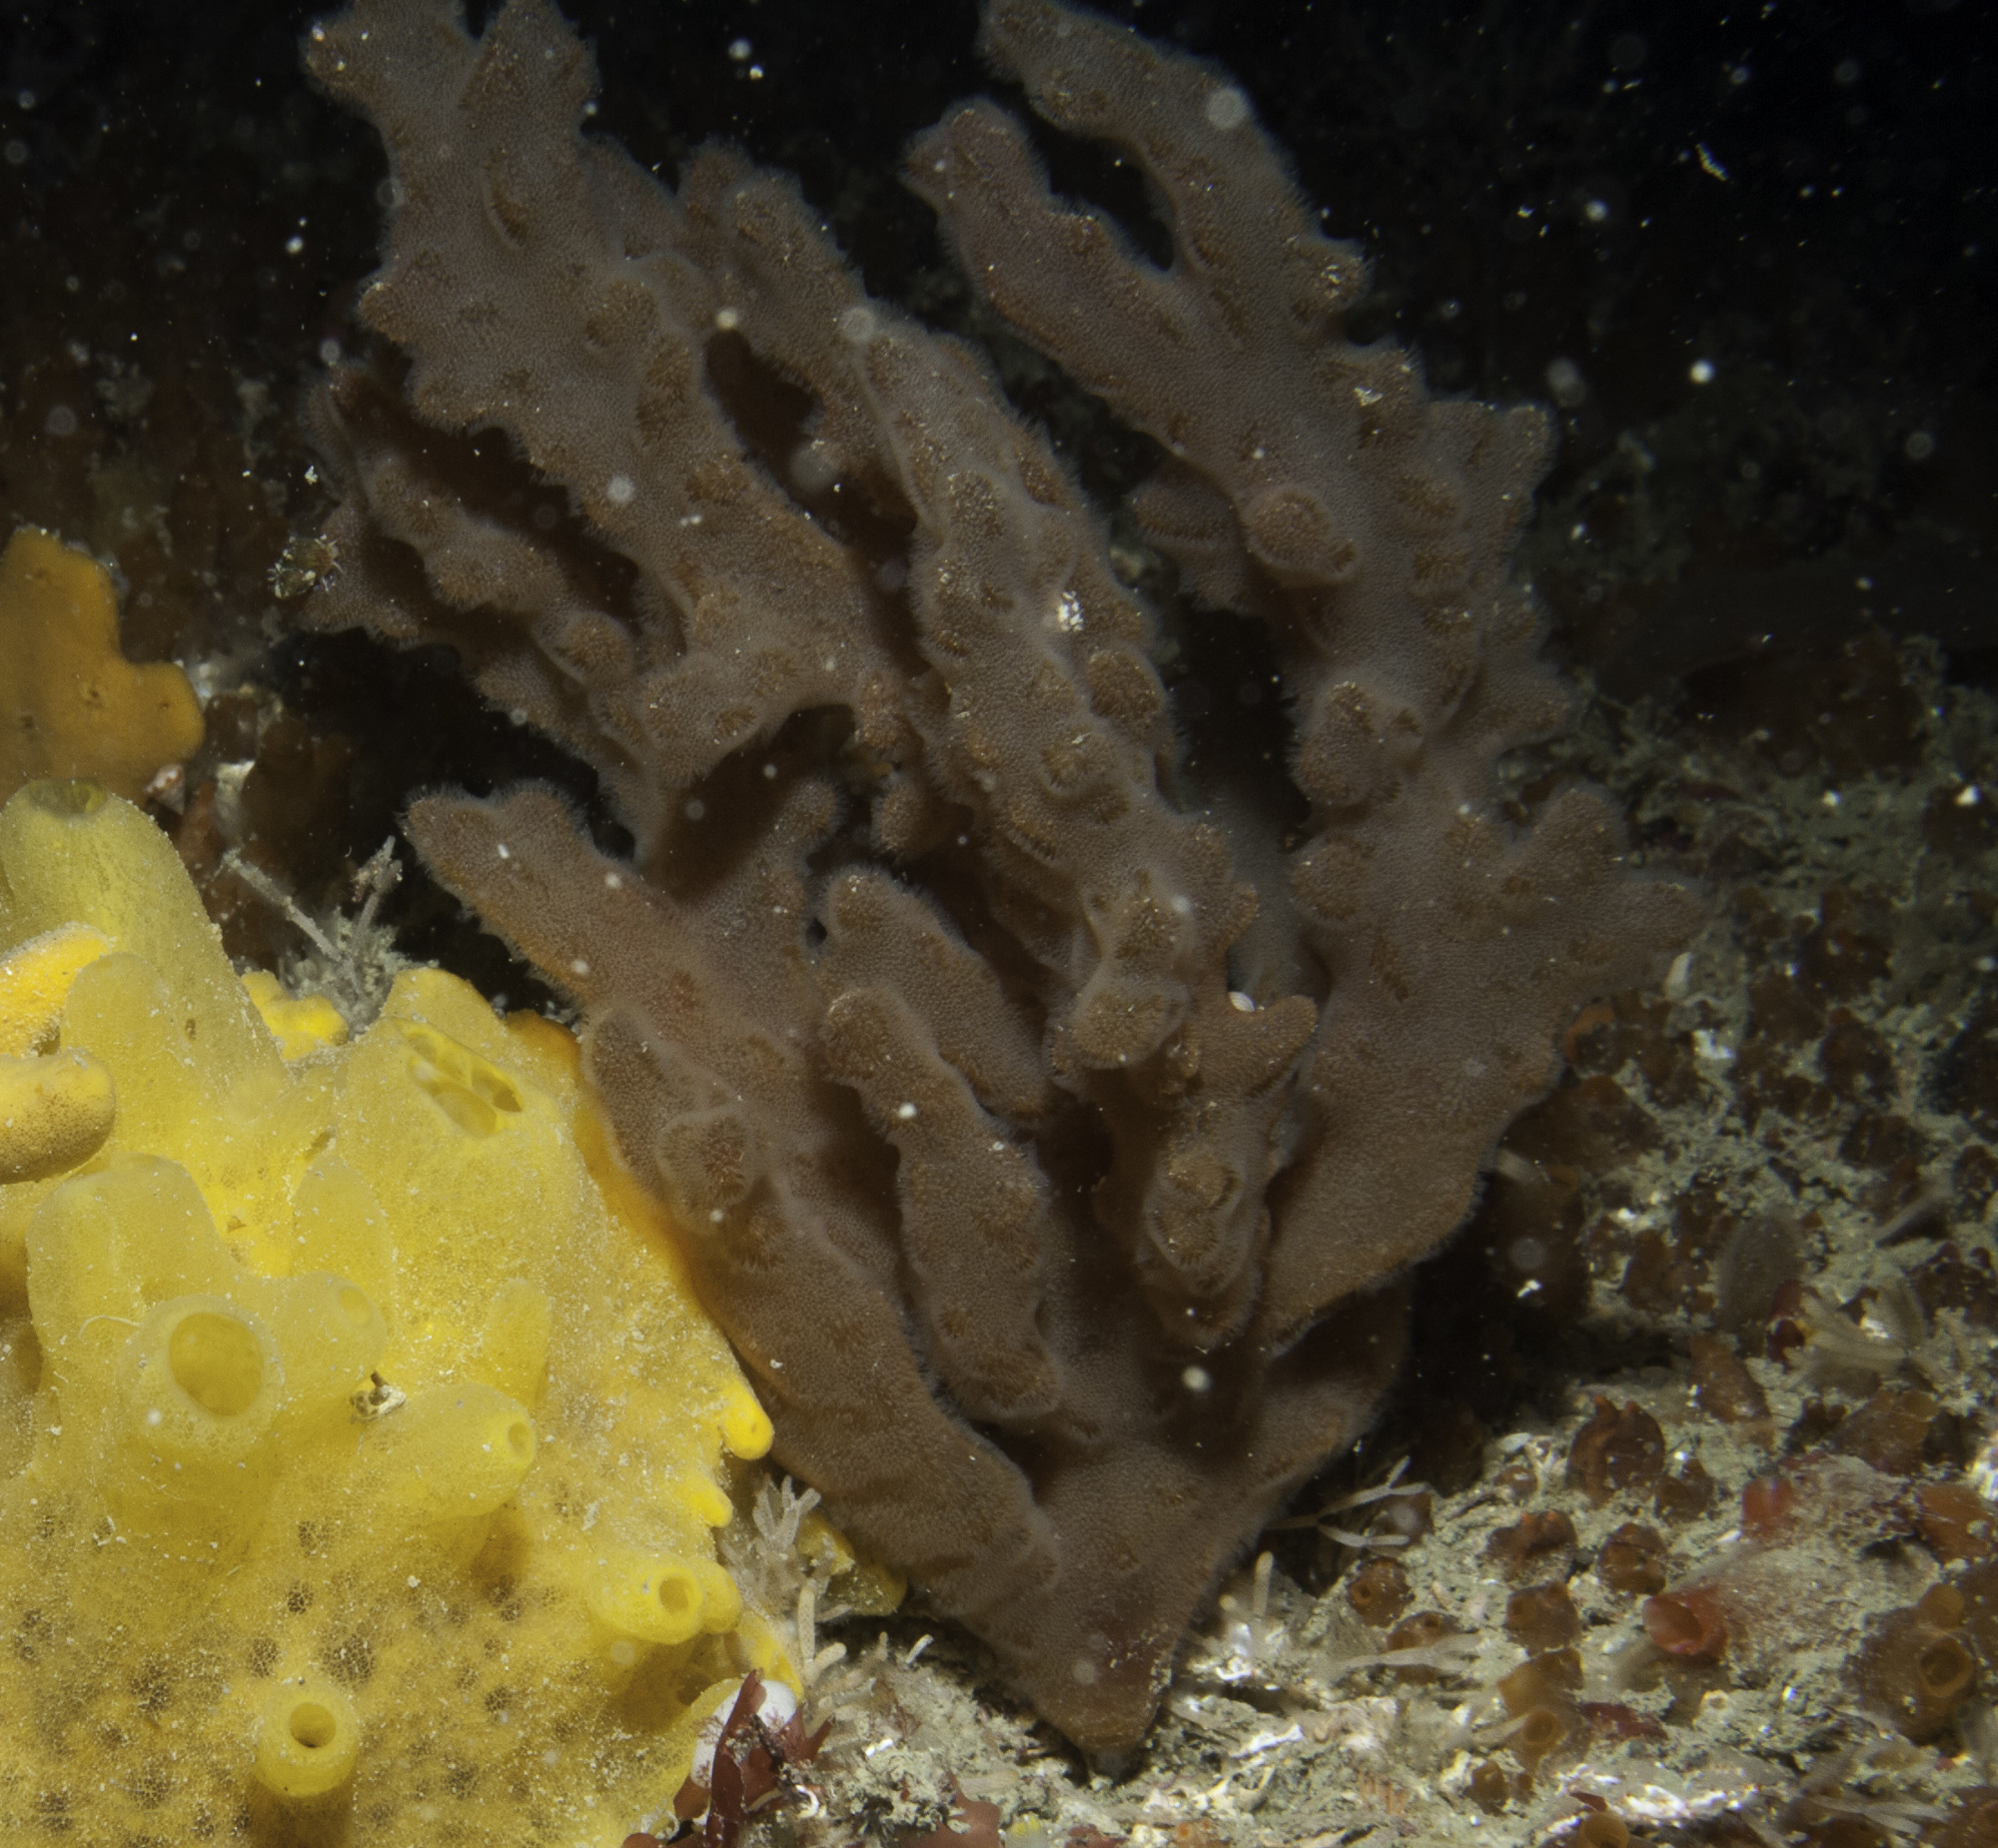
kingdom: Animalia
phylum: Bryozoa
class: Gymnolaemata
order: Ctenostomatida
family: Alcyonidiidae
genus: Alcyonidium
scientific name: Alcyonidium diaphanum
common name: Sea chervil
